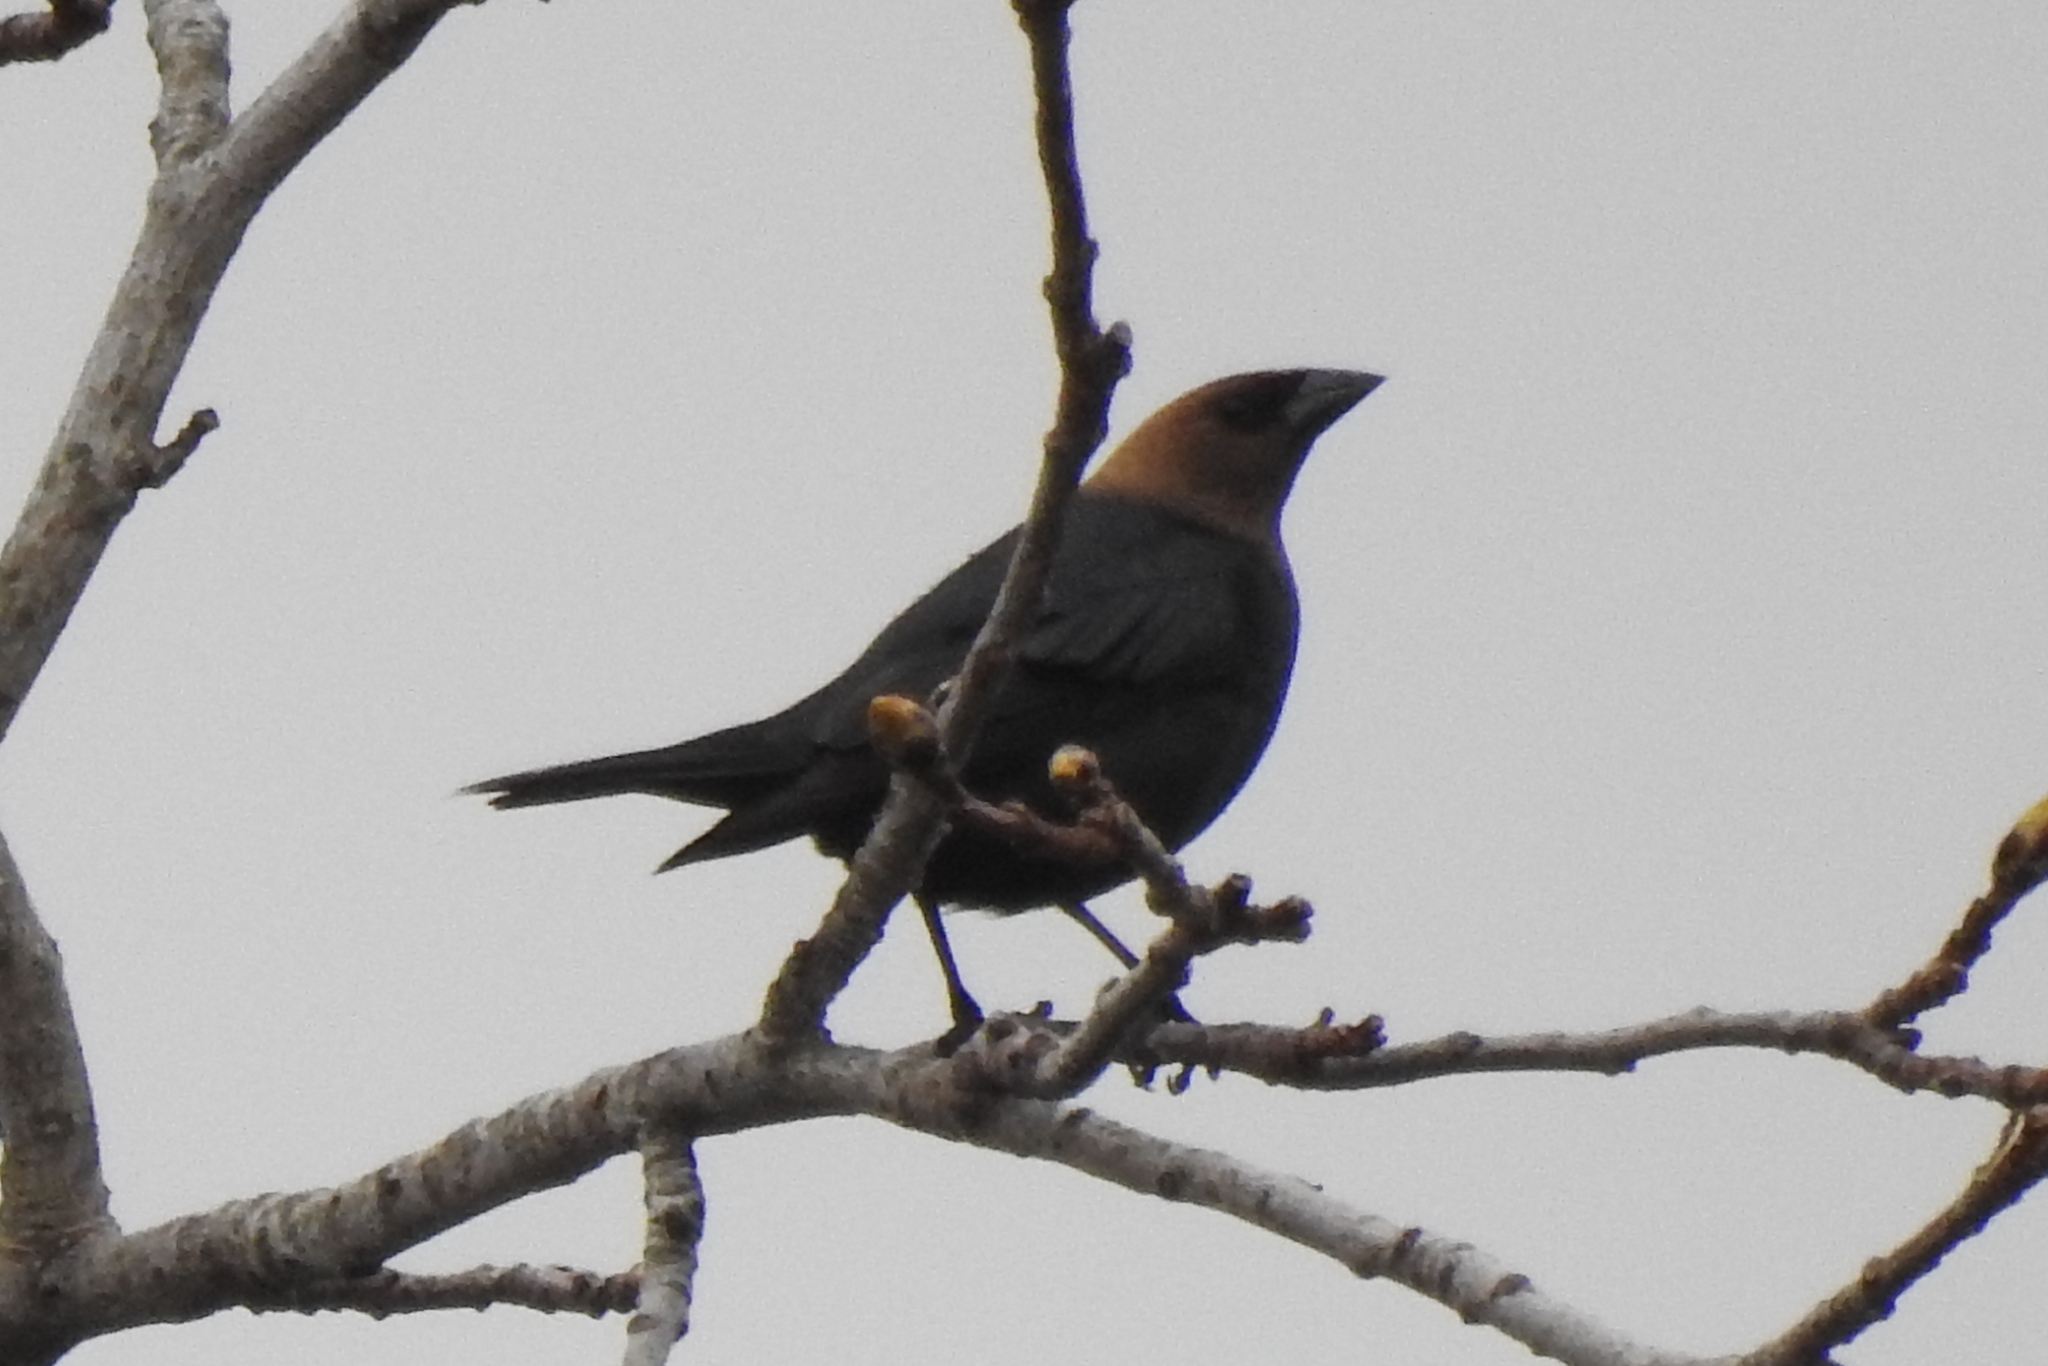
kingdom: Animalia
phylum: Chordata
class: Aves
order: Passeriformes
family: Icteridae
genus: Molothrus
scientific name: Molothrus ater
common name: Brown-headed cowbird
